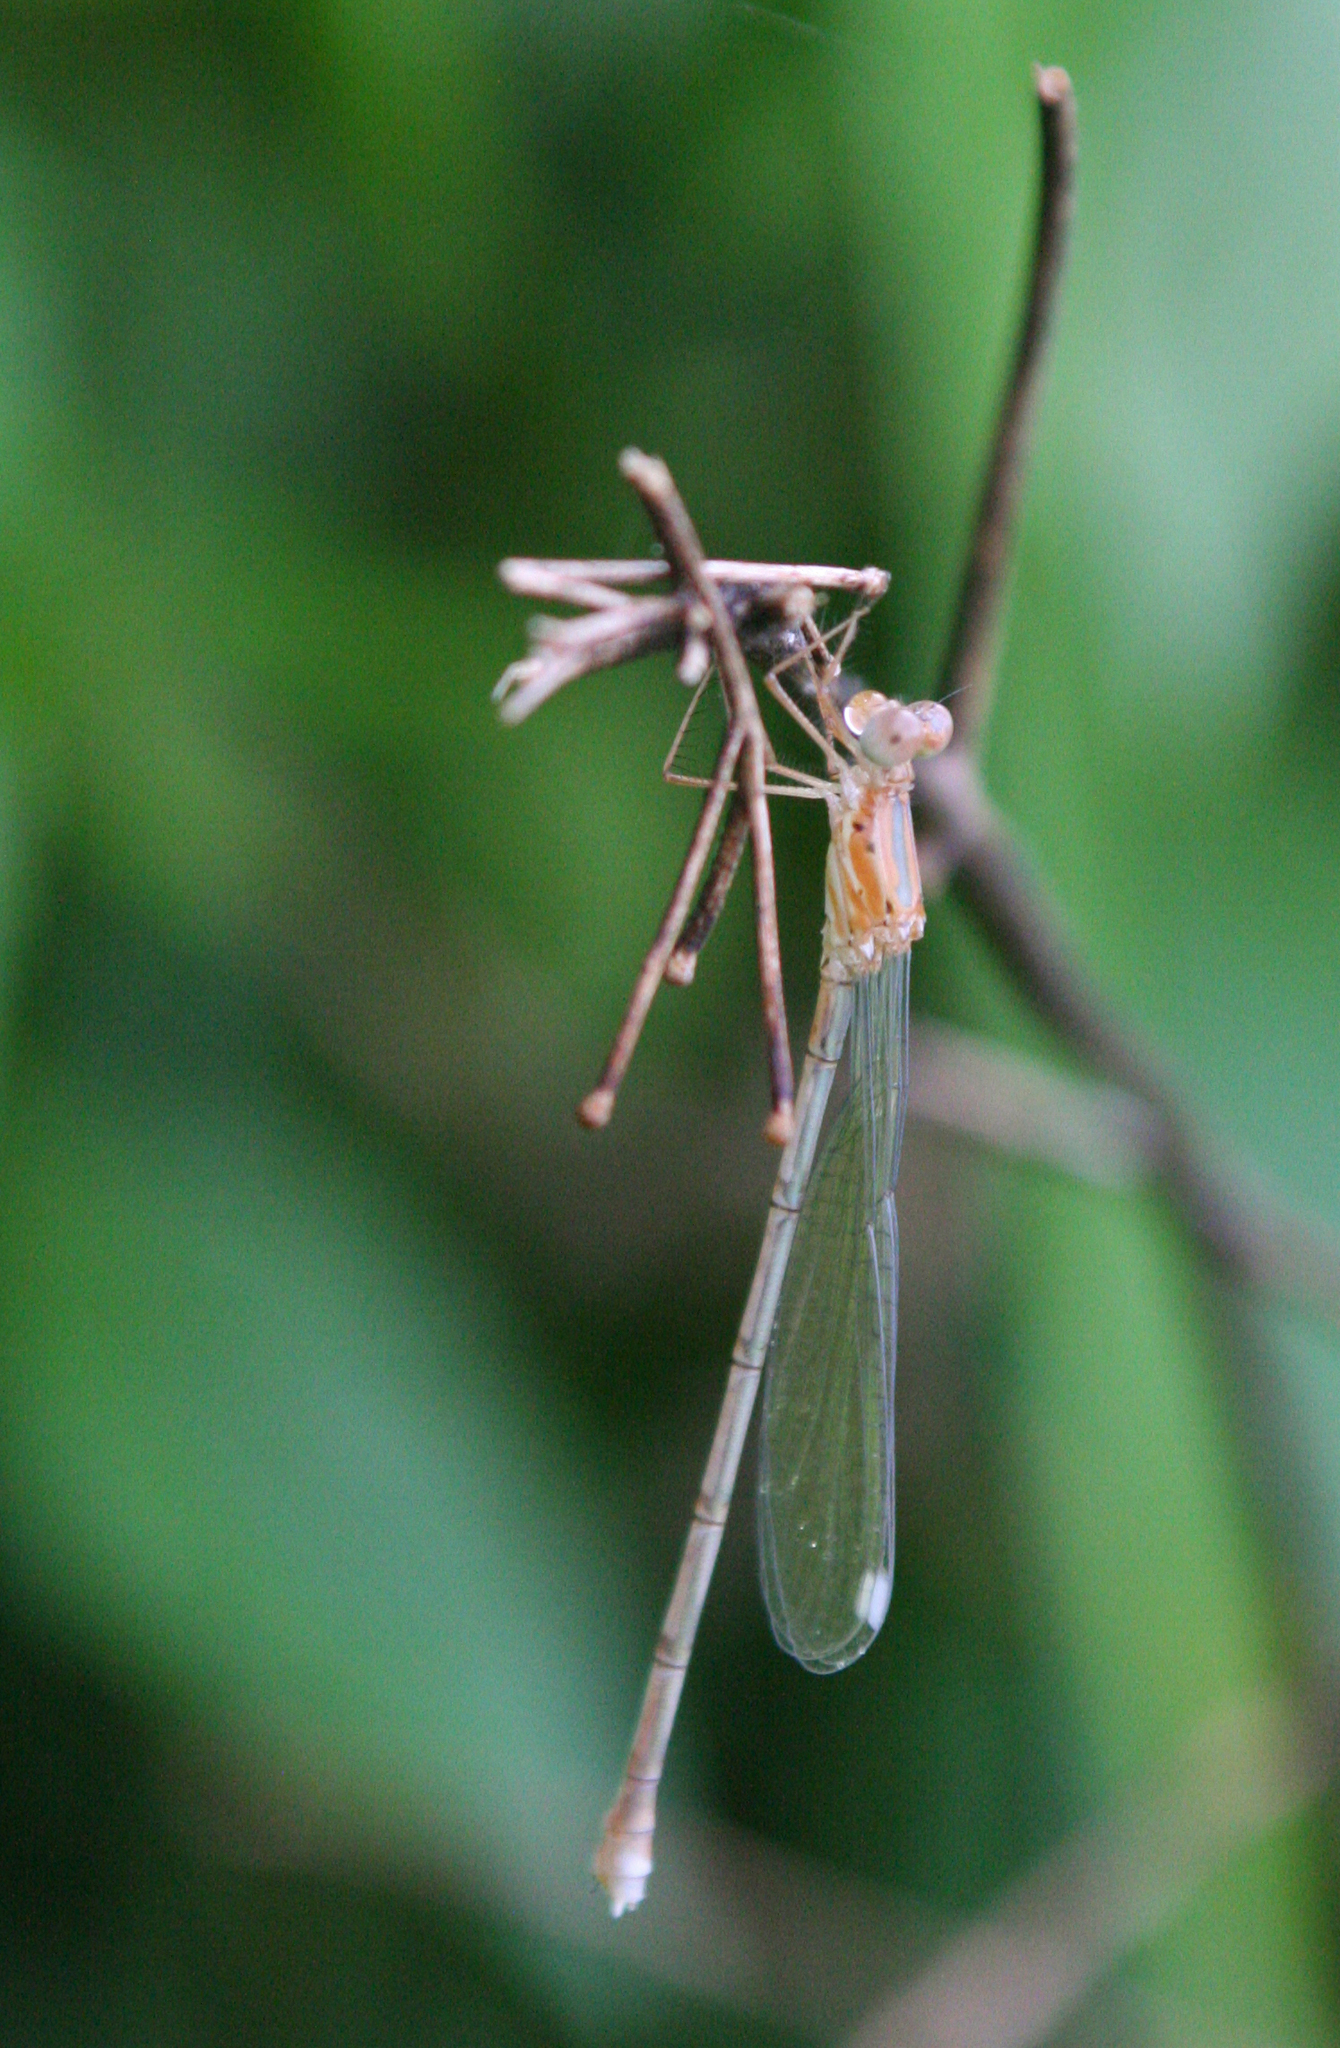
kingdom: Animalia
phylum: Arthropoda
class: Insecta
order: Odonata
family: Lestidae
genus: Lestes
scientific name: Lestes elatus
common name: Emerald spreadwing
